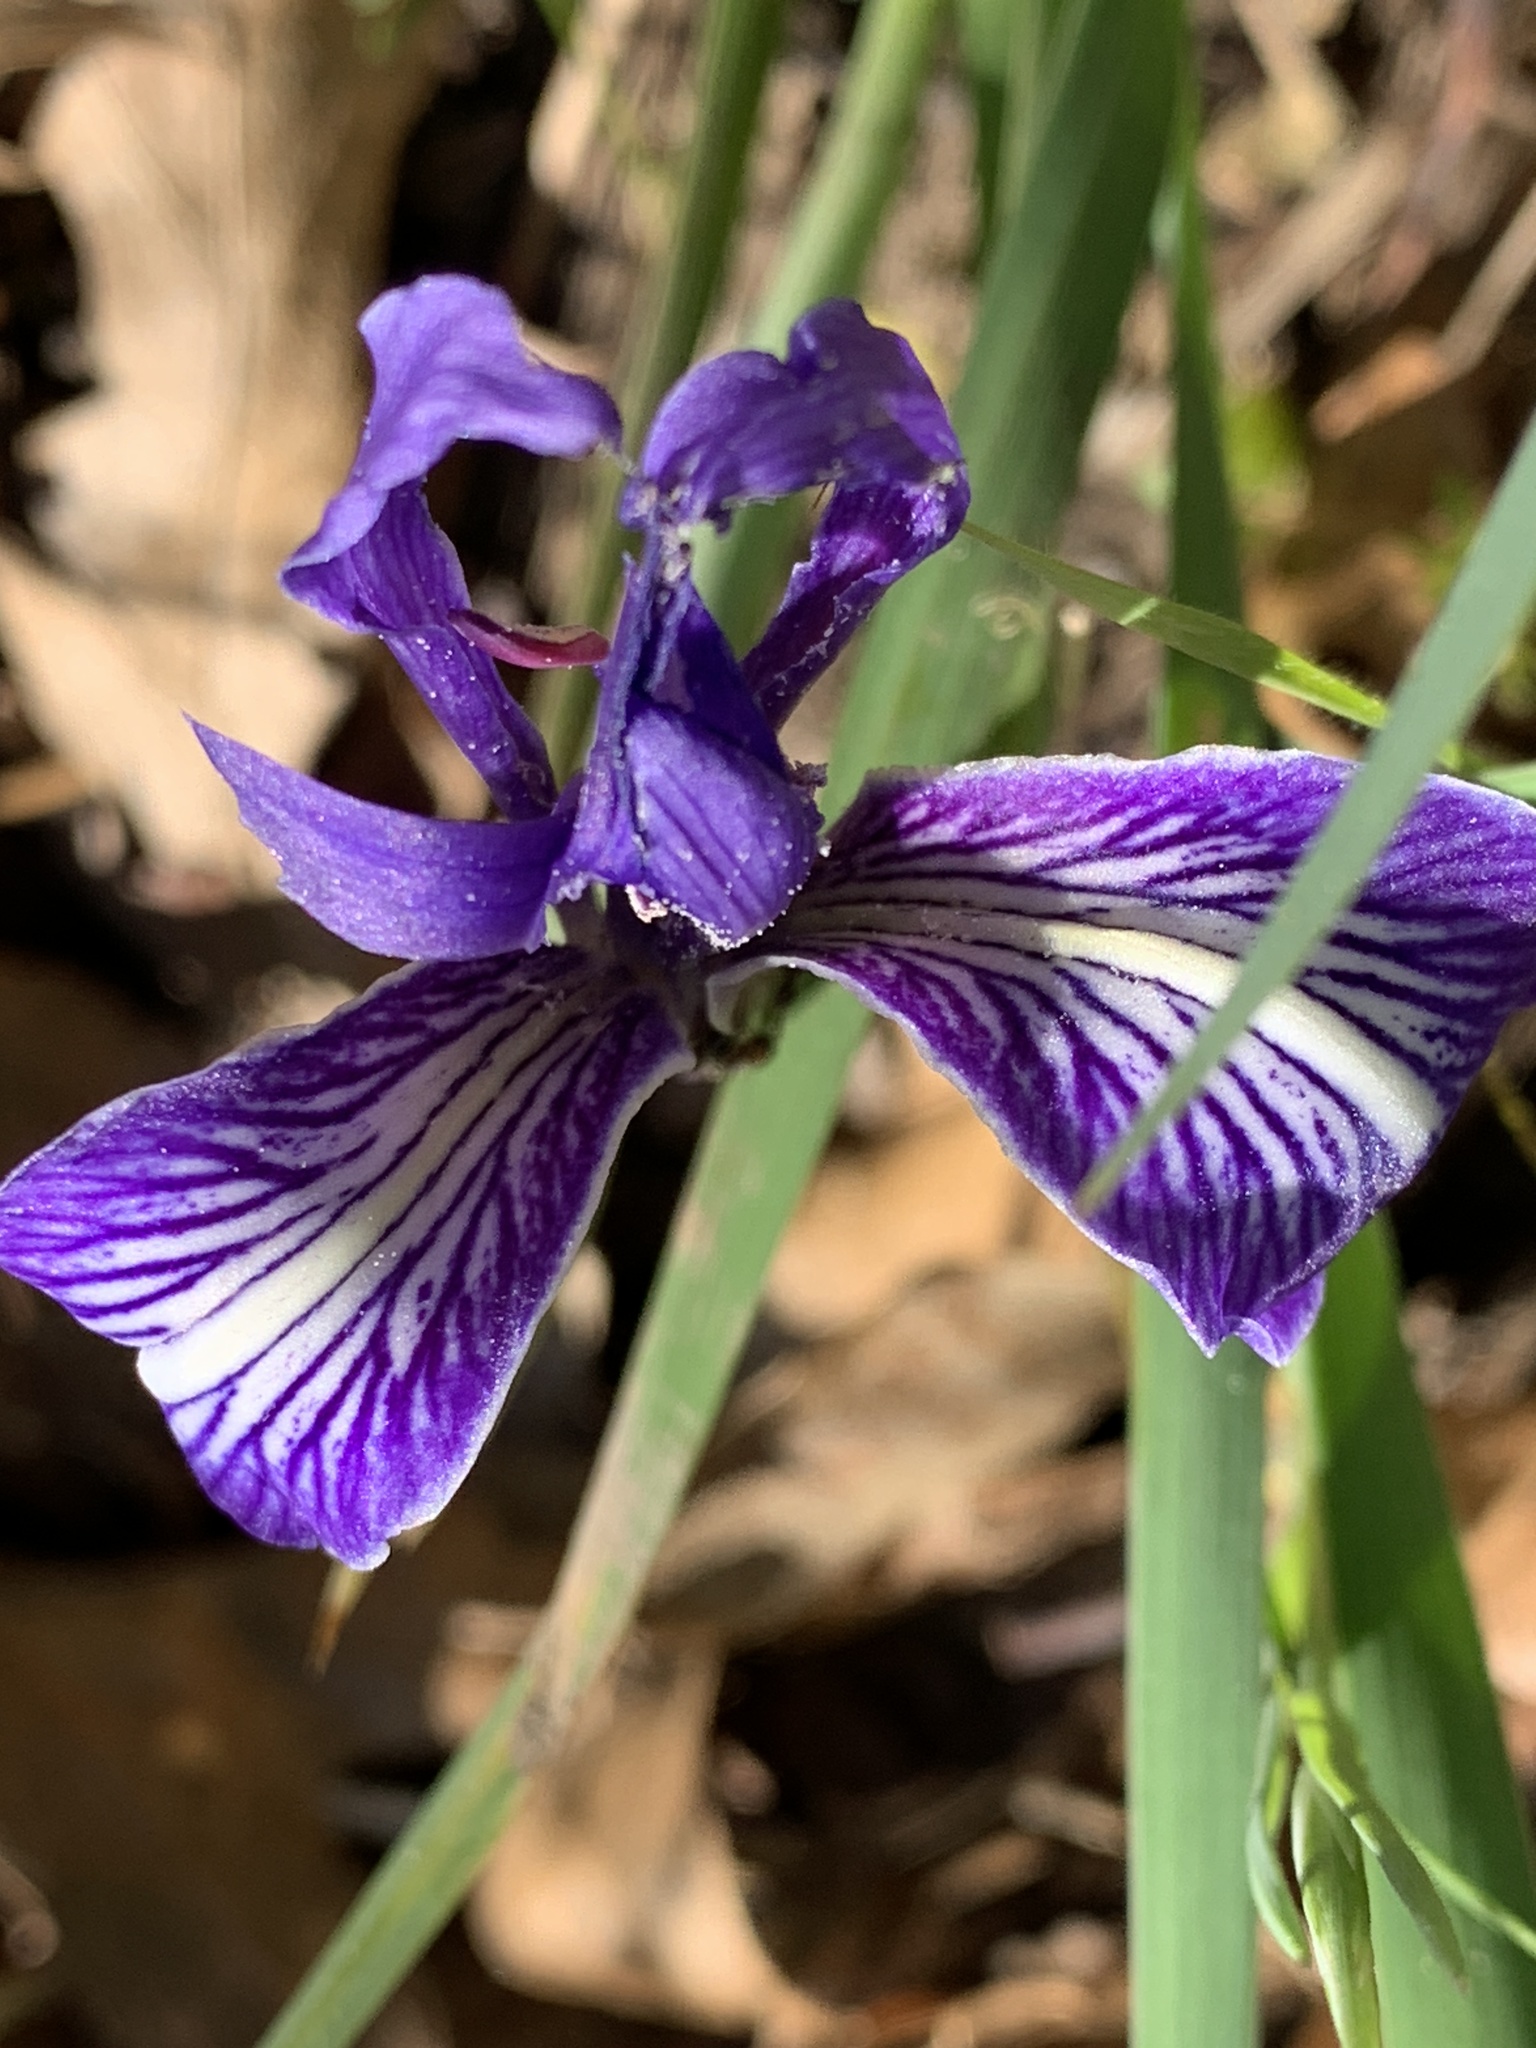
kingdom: Plantae
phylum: Tracheophyta
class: Liliopsida
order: Asparagales
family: Iridaceae
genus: Iris
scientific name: Iris macrosiphon
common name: Ground iris
